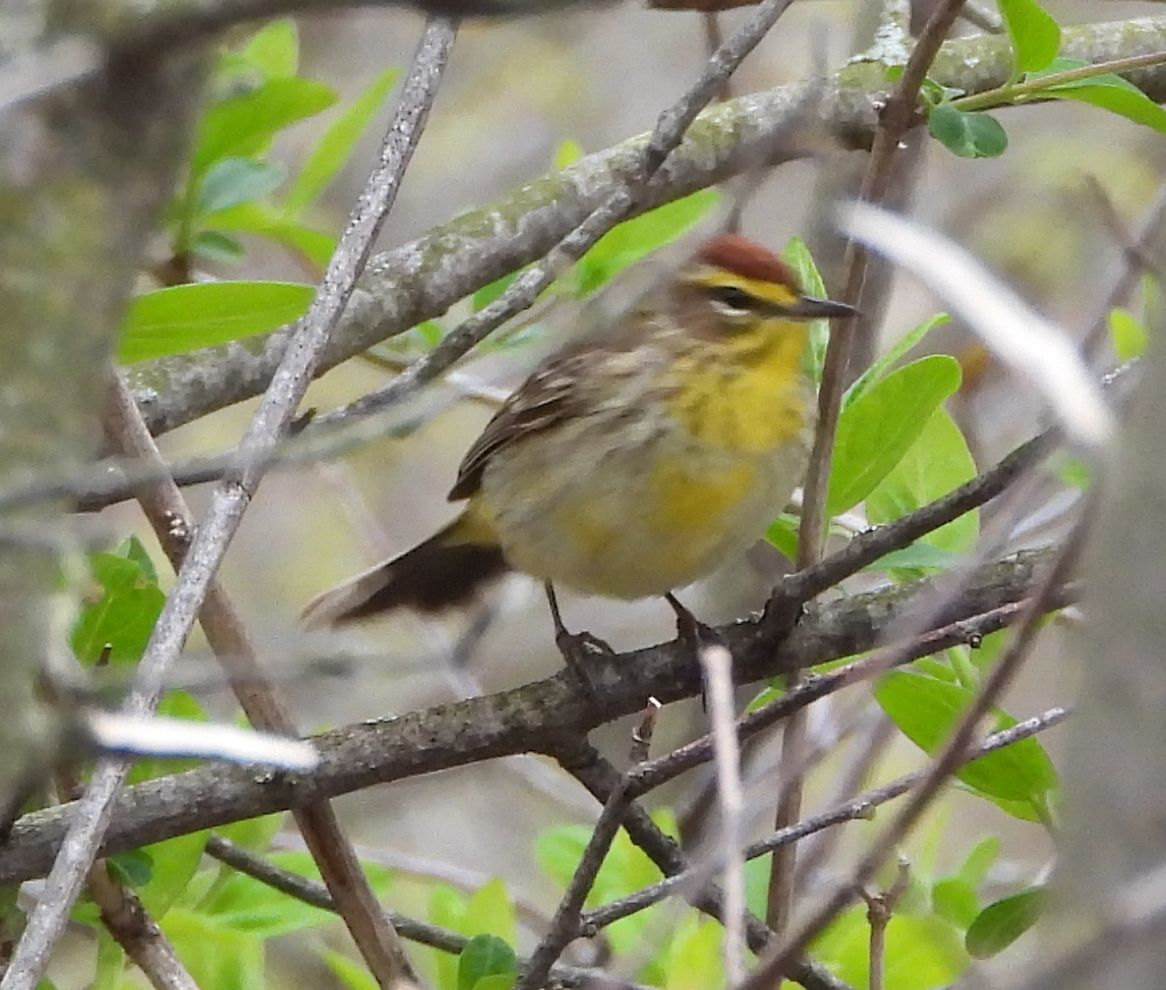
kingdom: Animalia
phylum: Chordata
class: Aves
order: Passeriformes
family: Parulidae
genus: Setophaga
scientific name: Setophaga palmarum
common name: Palm warbler
